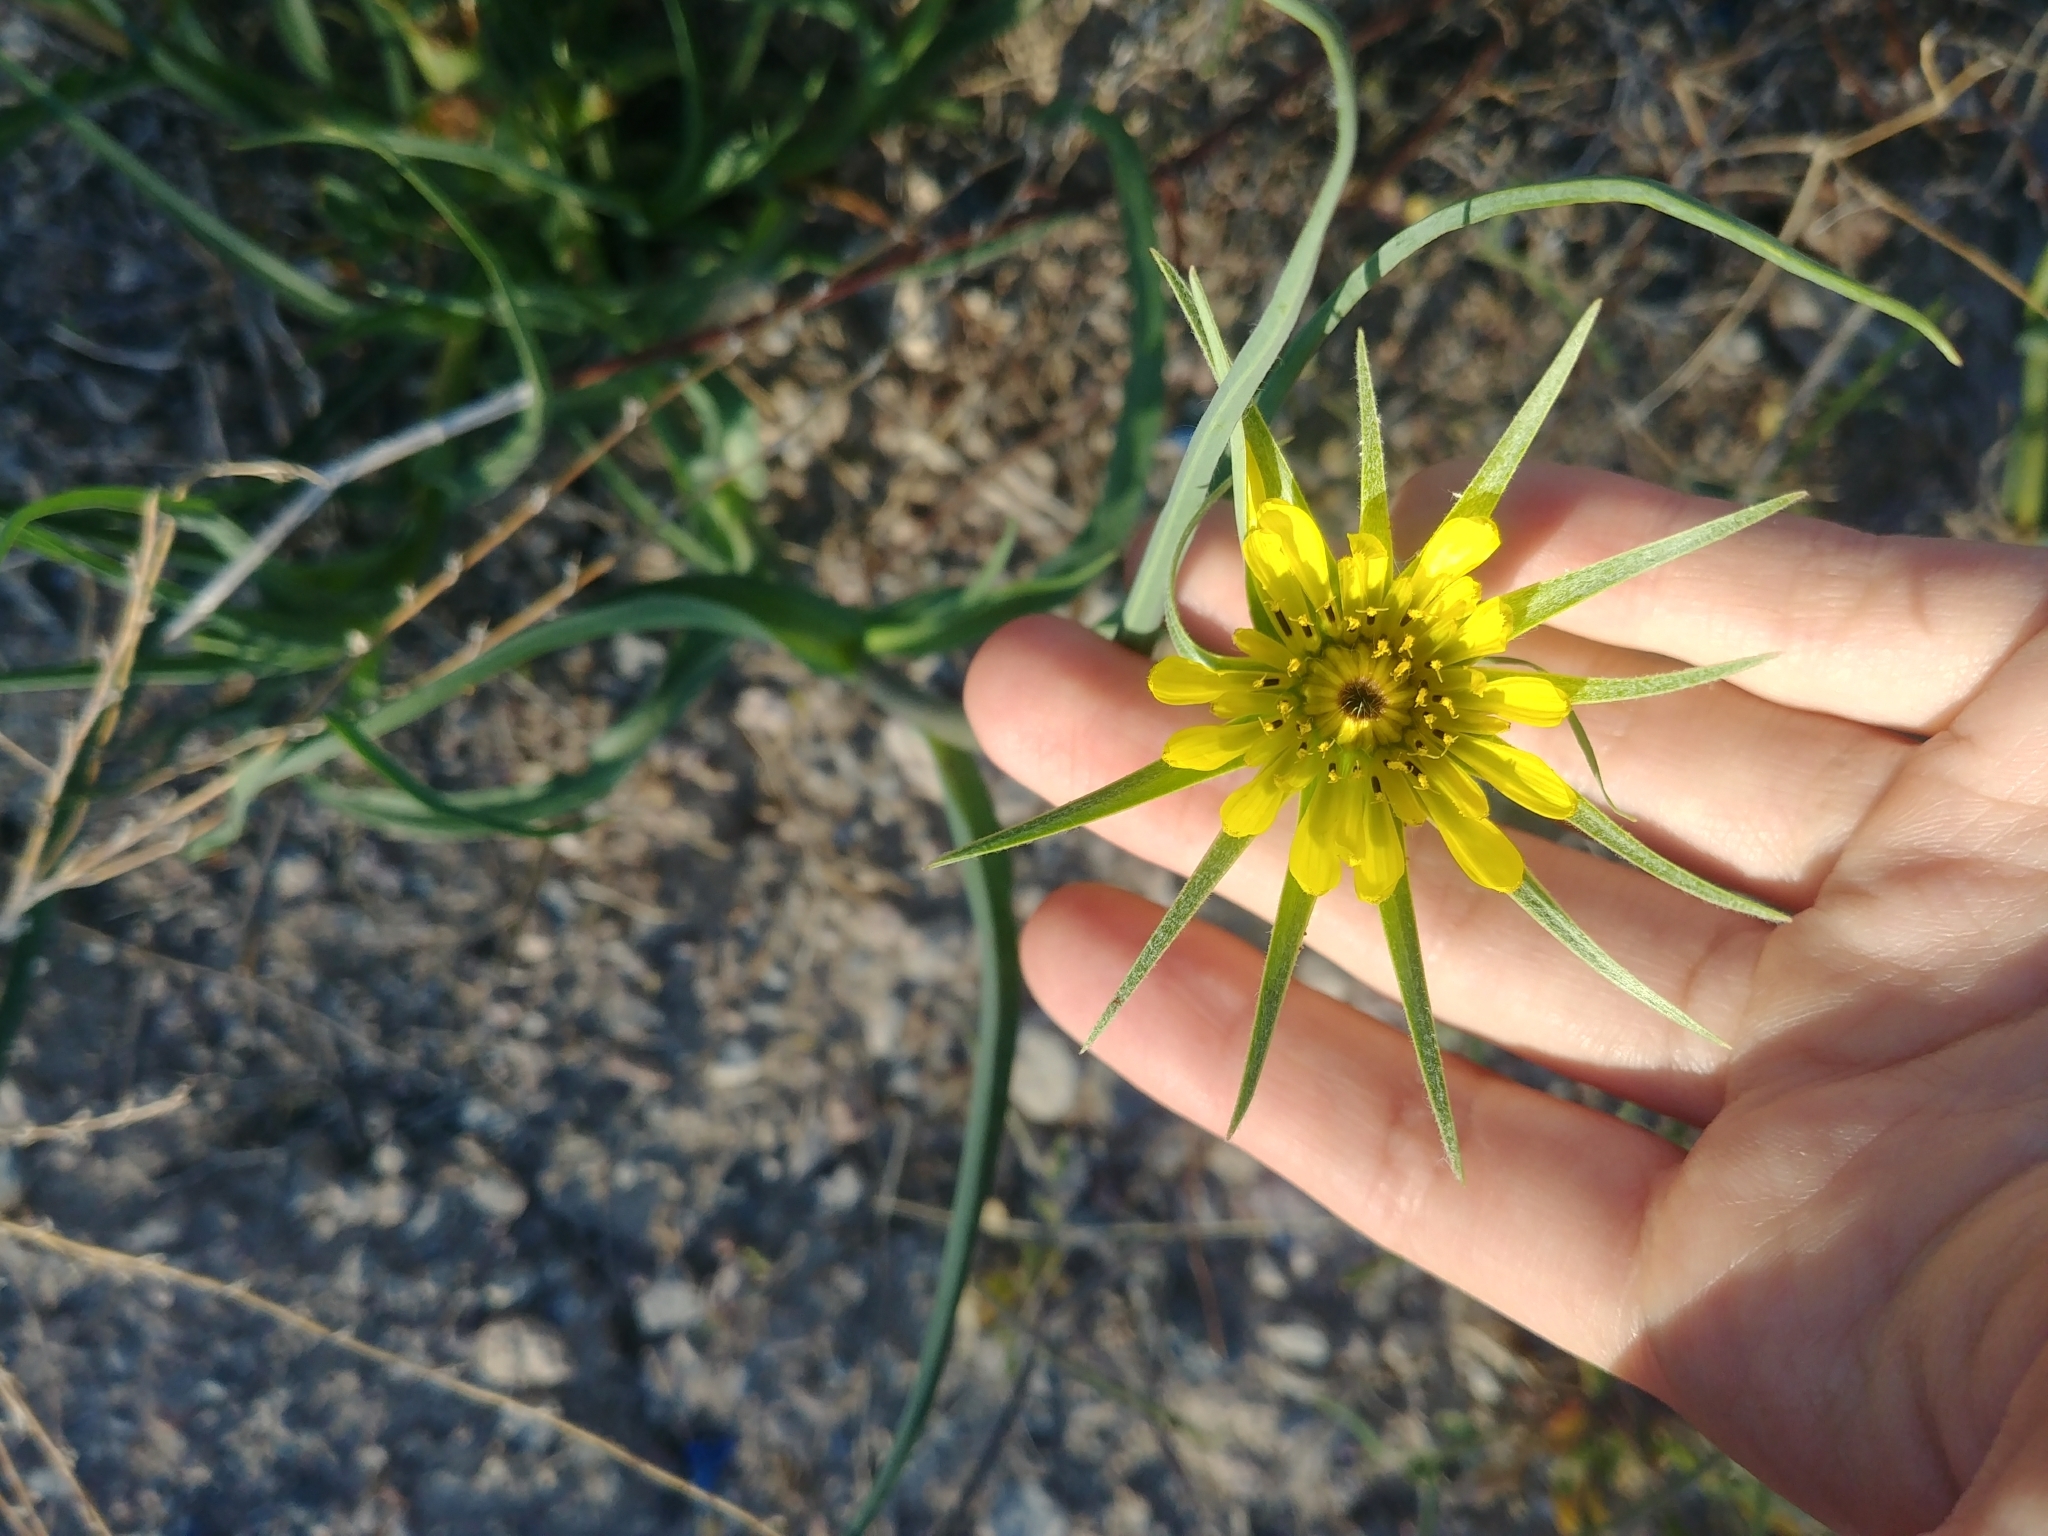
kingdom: Plantae
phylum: Tracheophyta
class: Magnoliopsida
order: Asterales
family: Asteraceae
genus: Tragopogon
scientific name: Tragopogon dubius
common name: Yellow salsify
